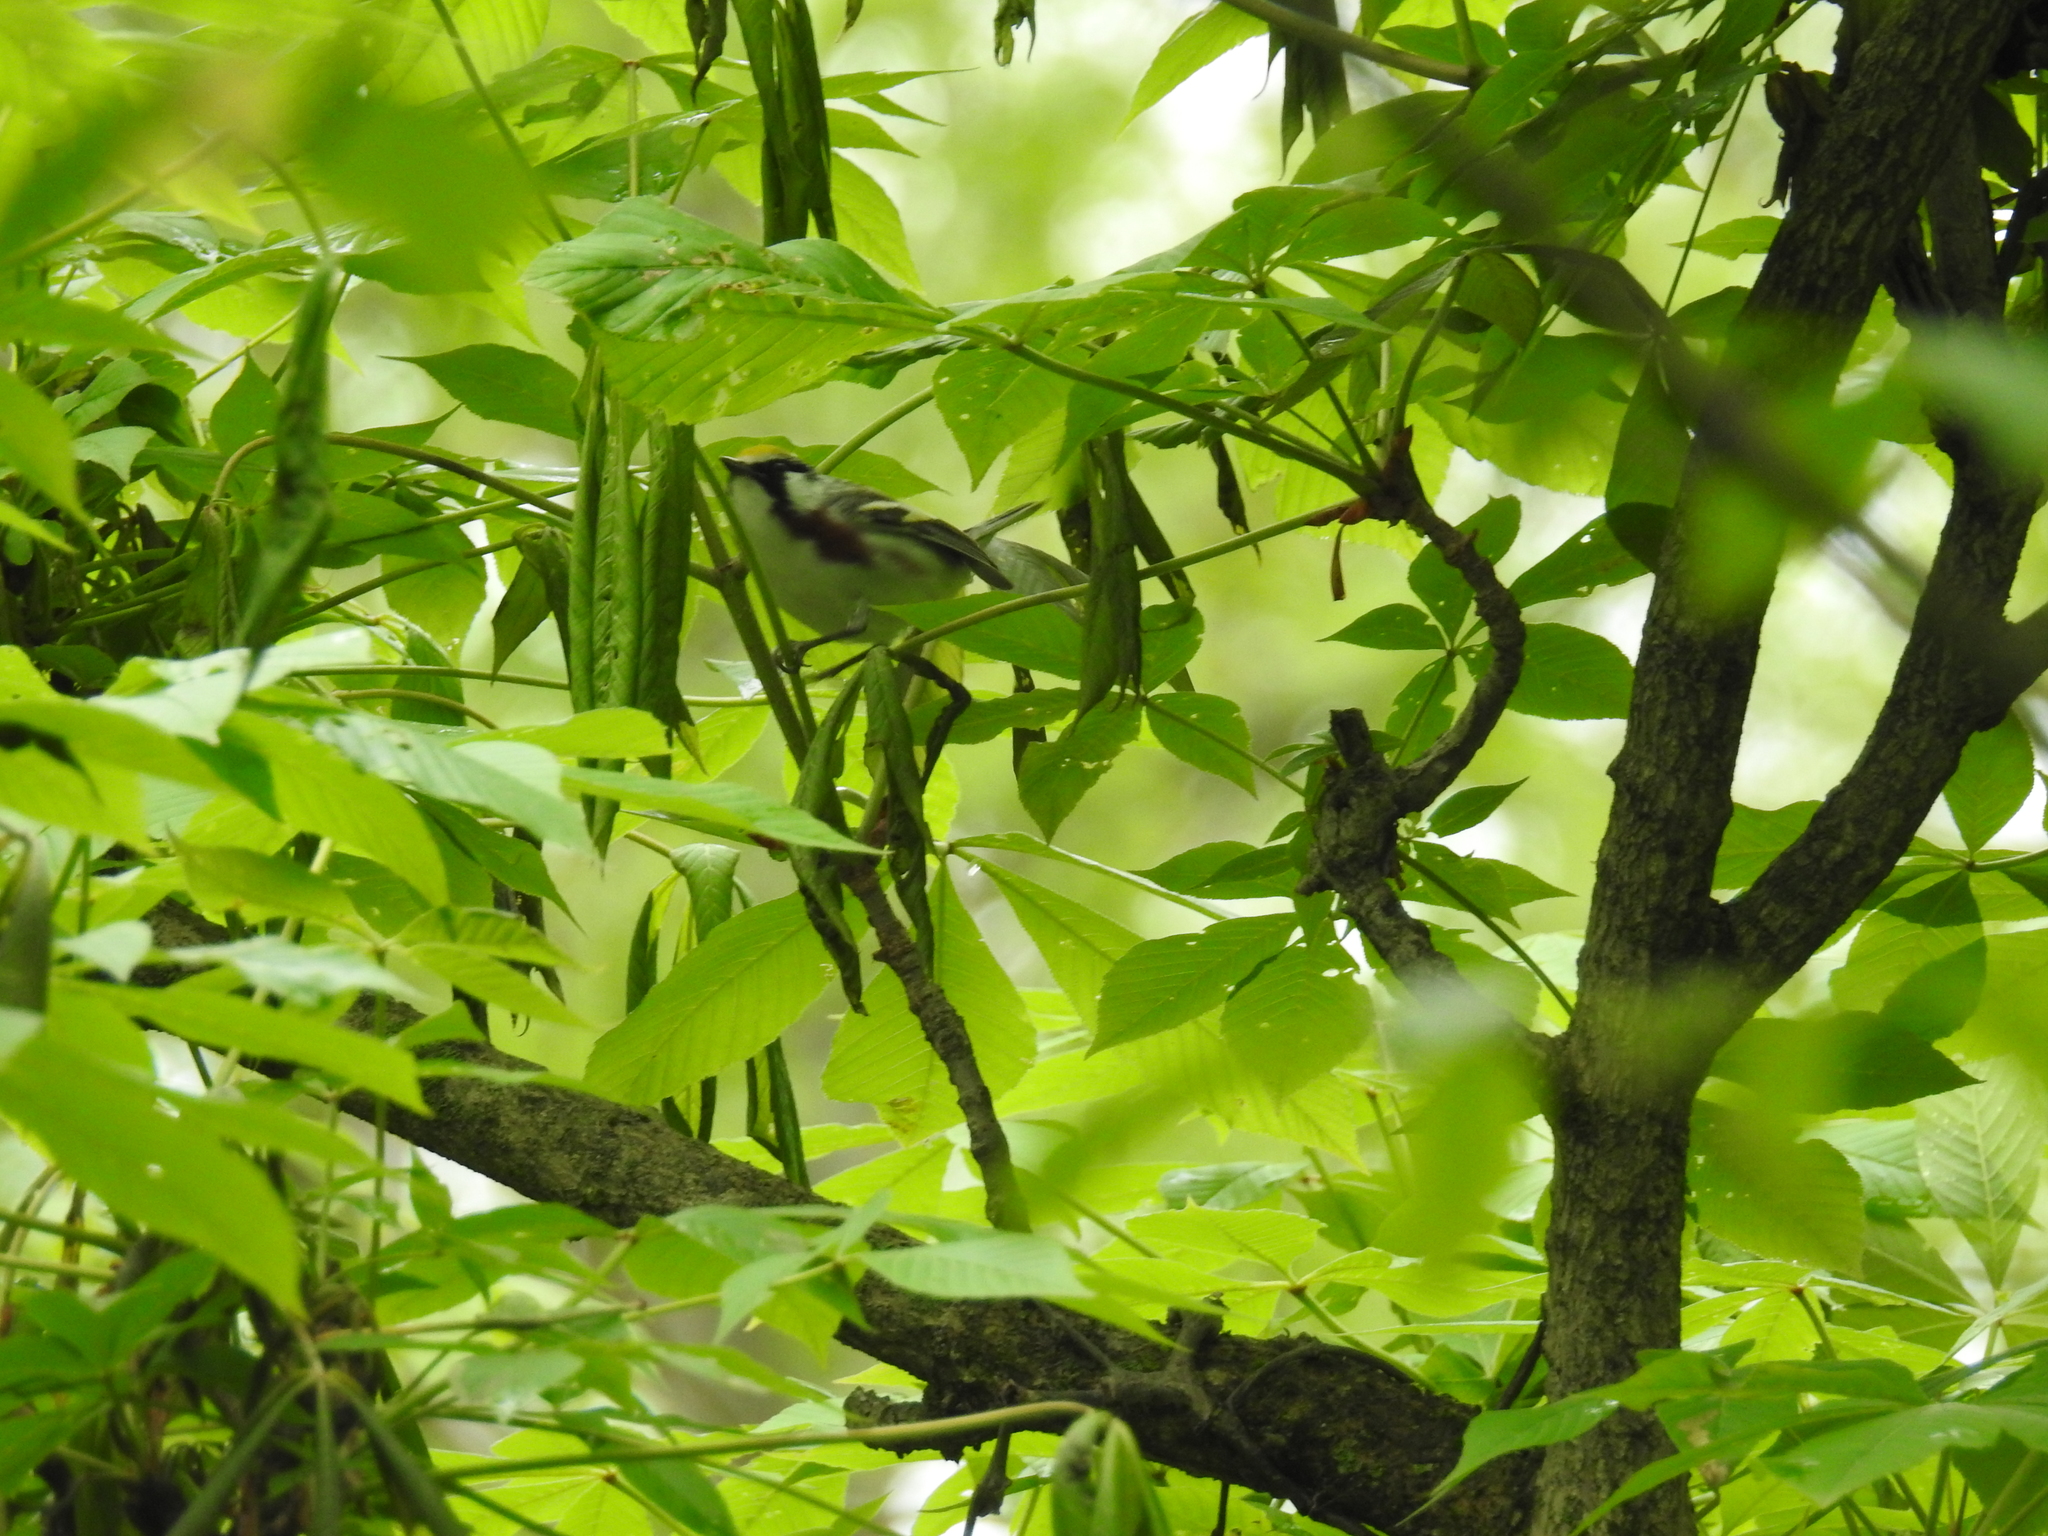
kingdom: Animalia
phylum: Chordata
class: Aves
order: Passeriformes
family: Parulidae
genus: Setophaga
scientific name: Setophaga pensylvanica
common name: Chestnut-sided warbler
